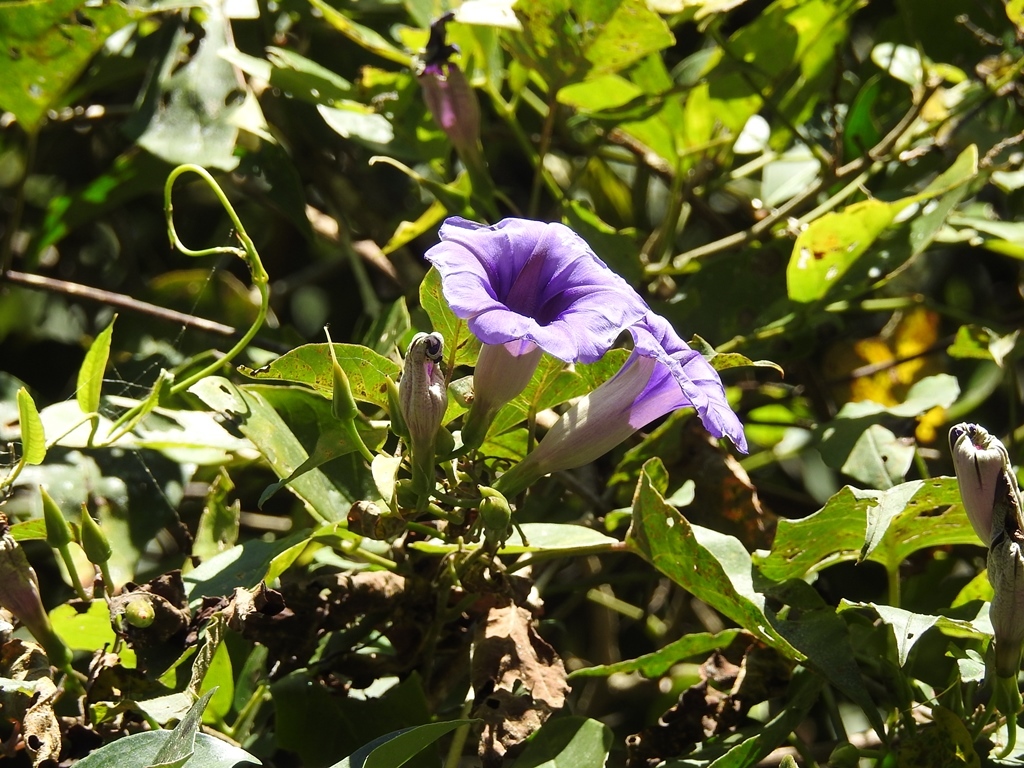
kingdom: Plantae
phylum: Tracheophyta
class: Magnoliopsida
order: Solanales
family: Convolvulaceae
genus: Ipomoea
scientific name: Ipomoea lindenii
